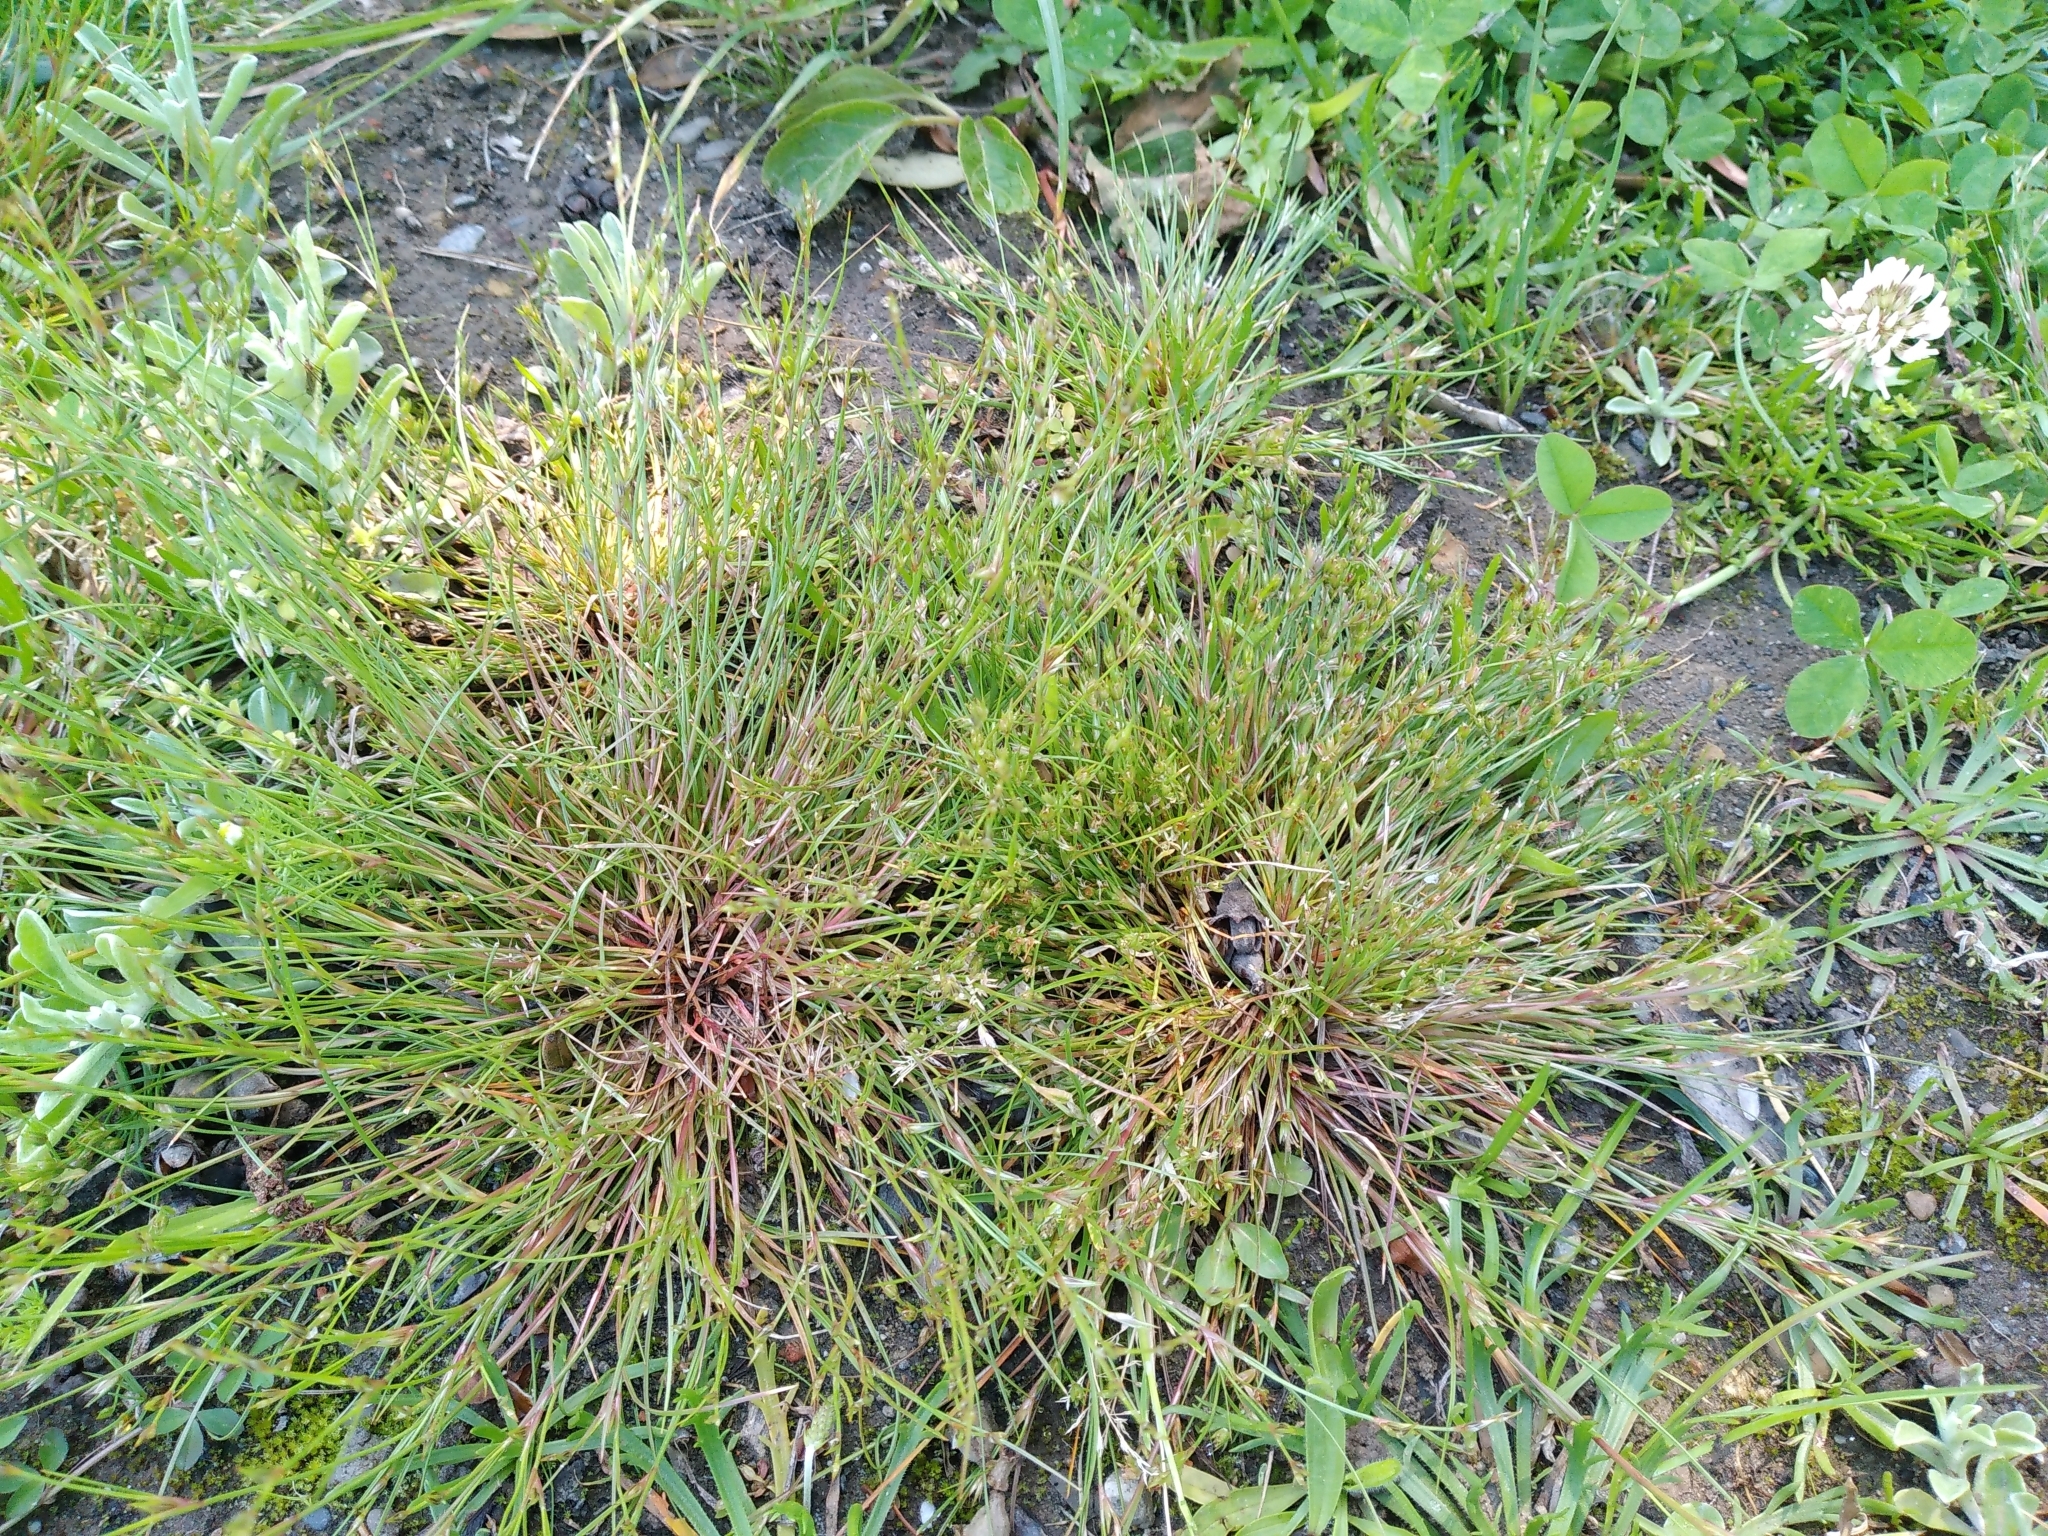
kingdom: Plantae
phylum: Tracheophyta
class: Liliopsida
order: Poales
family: Juncaceae
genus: Juncus
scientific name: Juncus bufonius
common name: Toad rush
